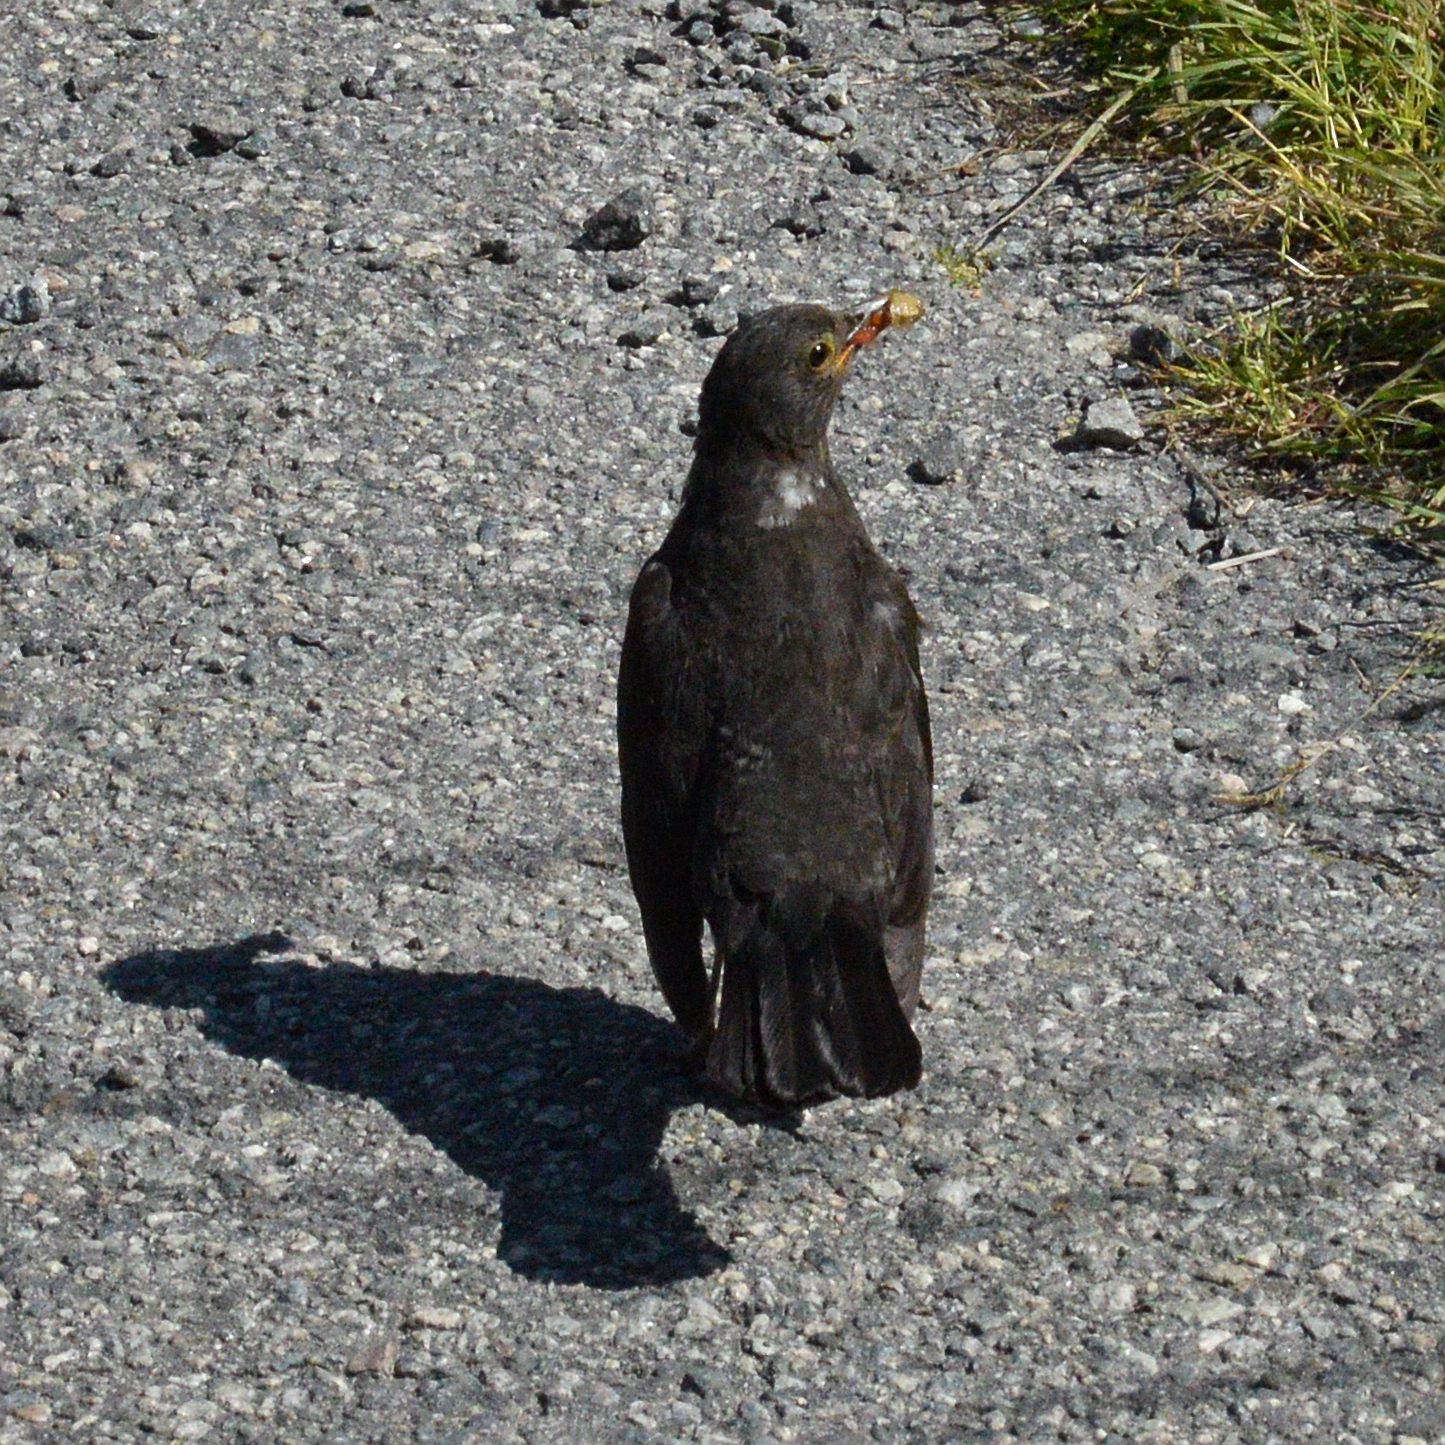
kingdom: Animalia
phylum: Chordata
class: Aves
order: Passeriformes
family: Turdidae
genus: Turdus
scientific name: Turdus merula
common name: Common blackbird
